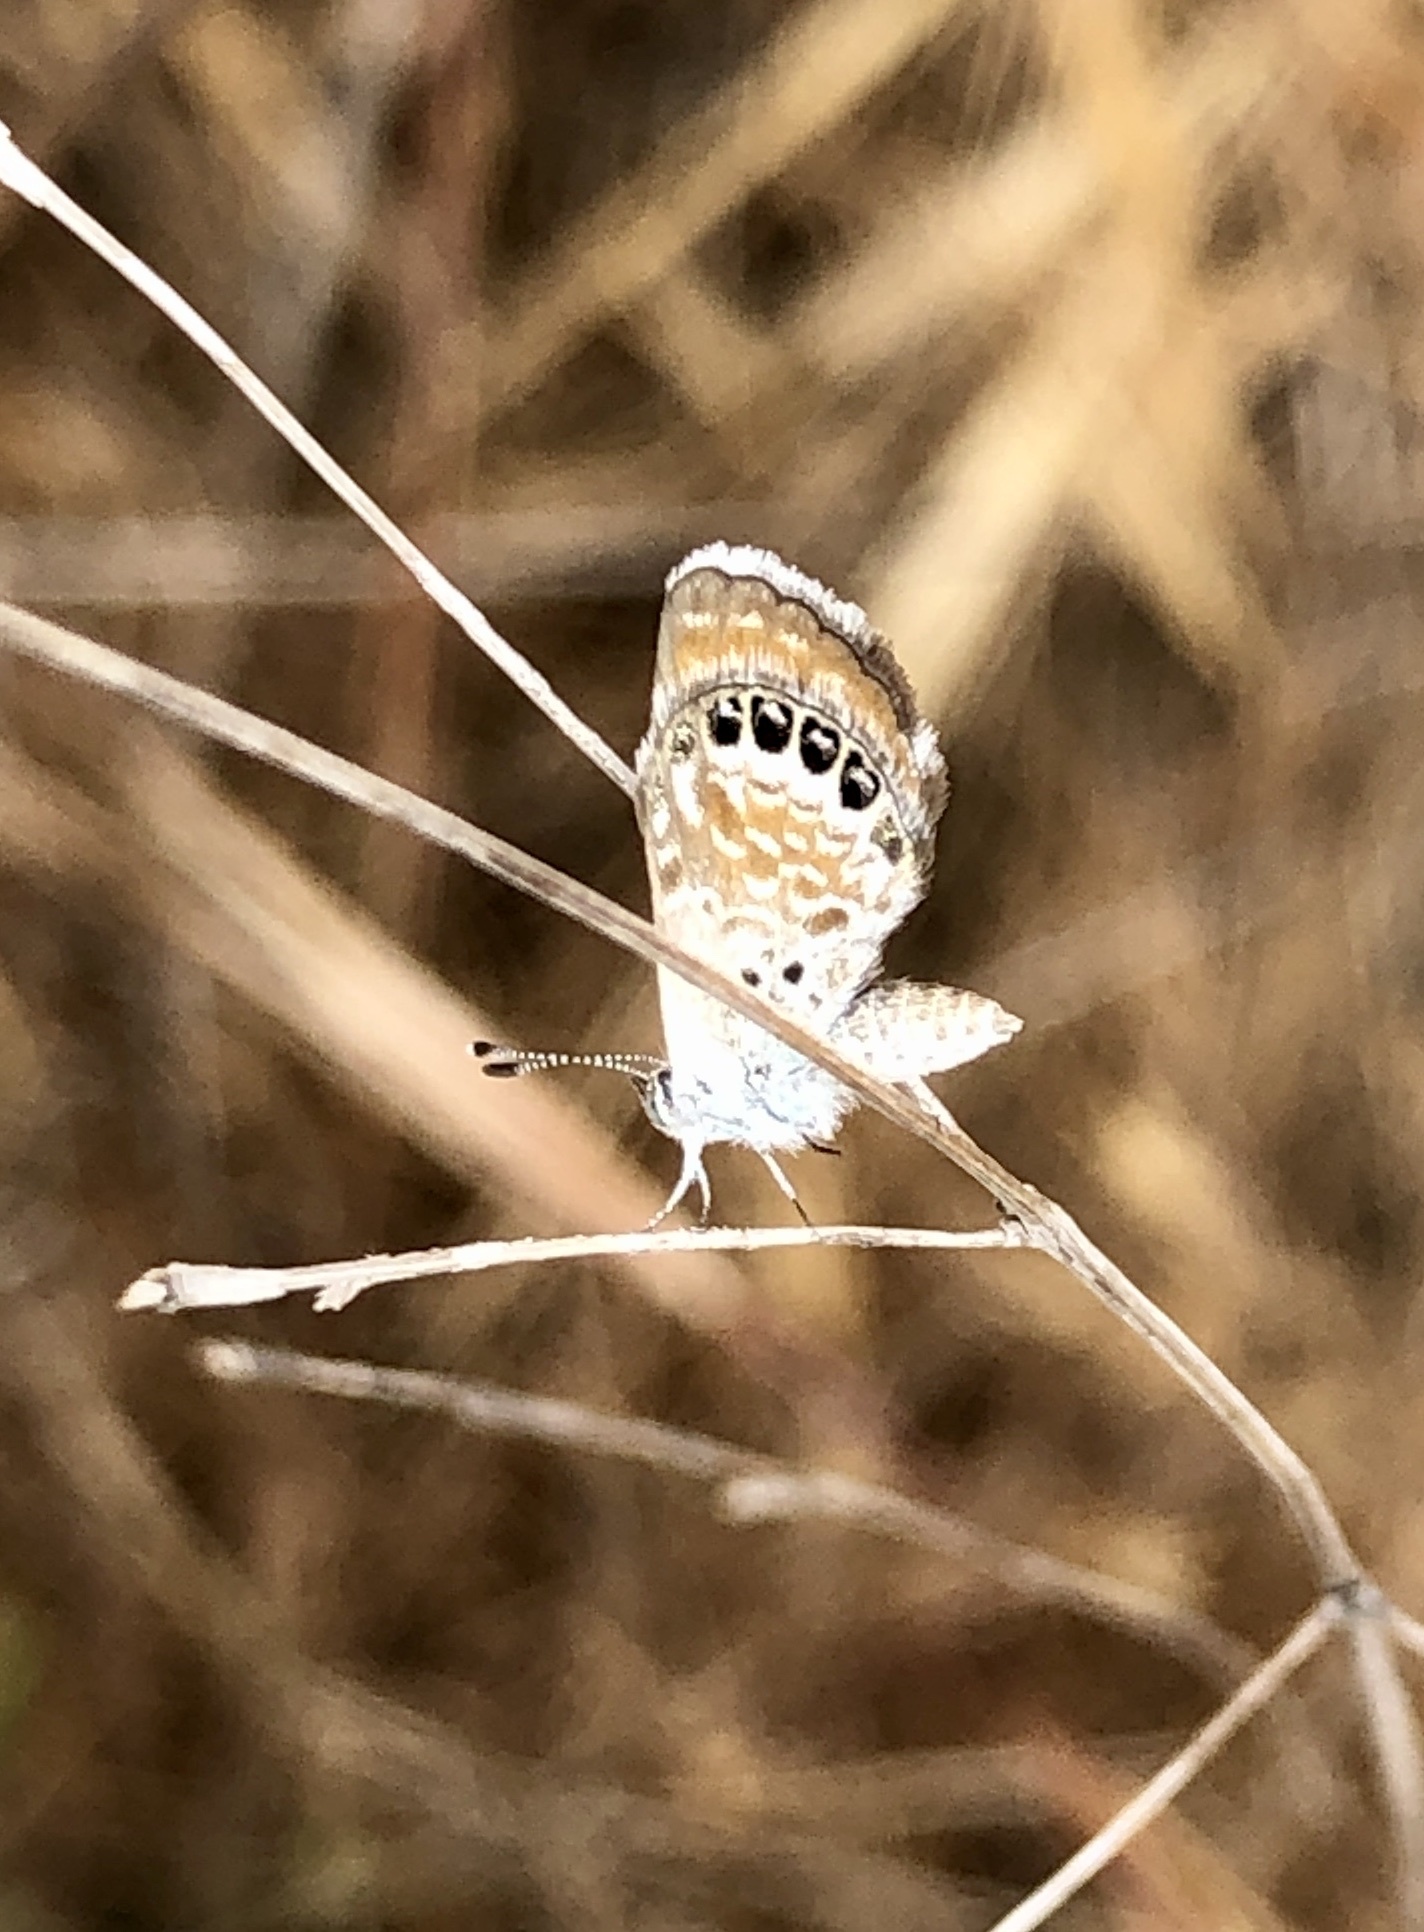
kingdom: Animalia
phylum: Arthropoda
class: Insecta
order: Lepidoptera
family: Lycaenidae
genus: Brephidium
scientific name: Brephidium exilis
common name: Pygmy blue
